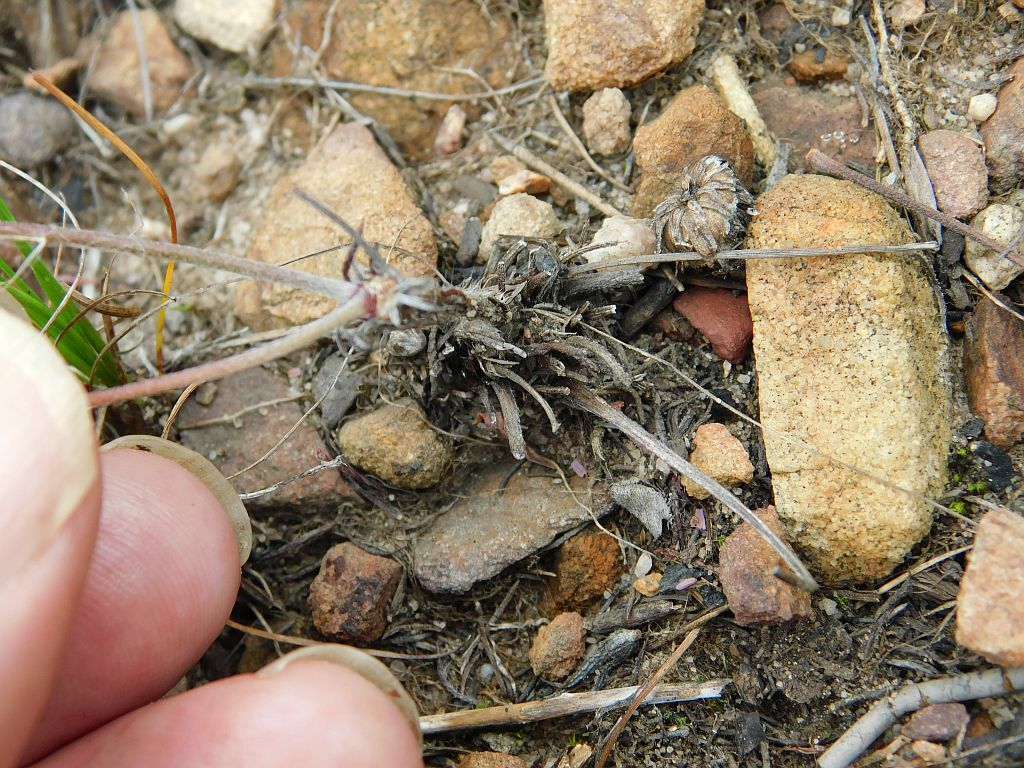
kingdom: Plantae
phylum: Tracheophyta
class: Magnoliopsida
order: Geraniales
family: Geraniaceae
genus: Pelargonium
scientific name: Pelargonium caledonicum
